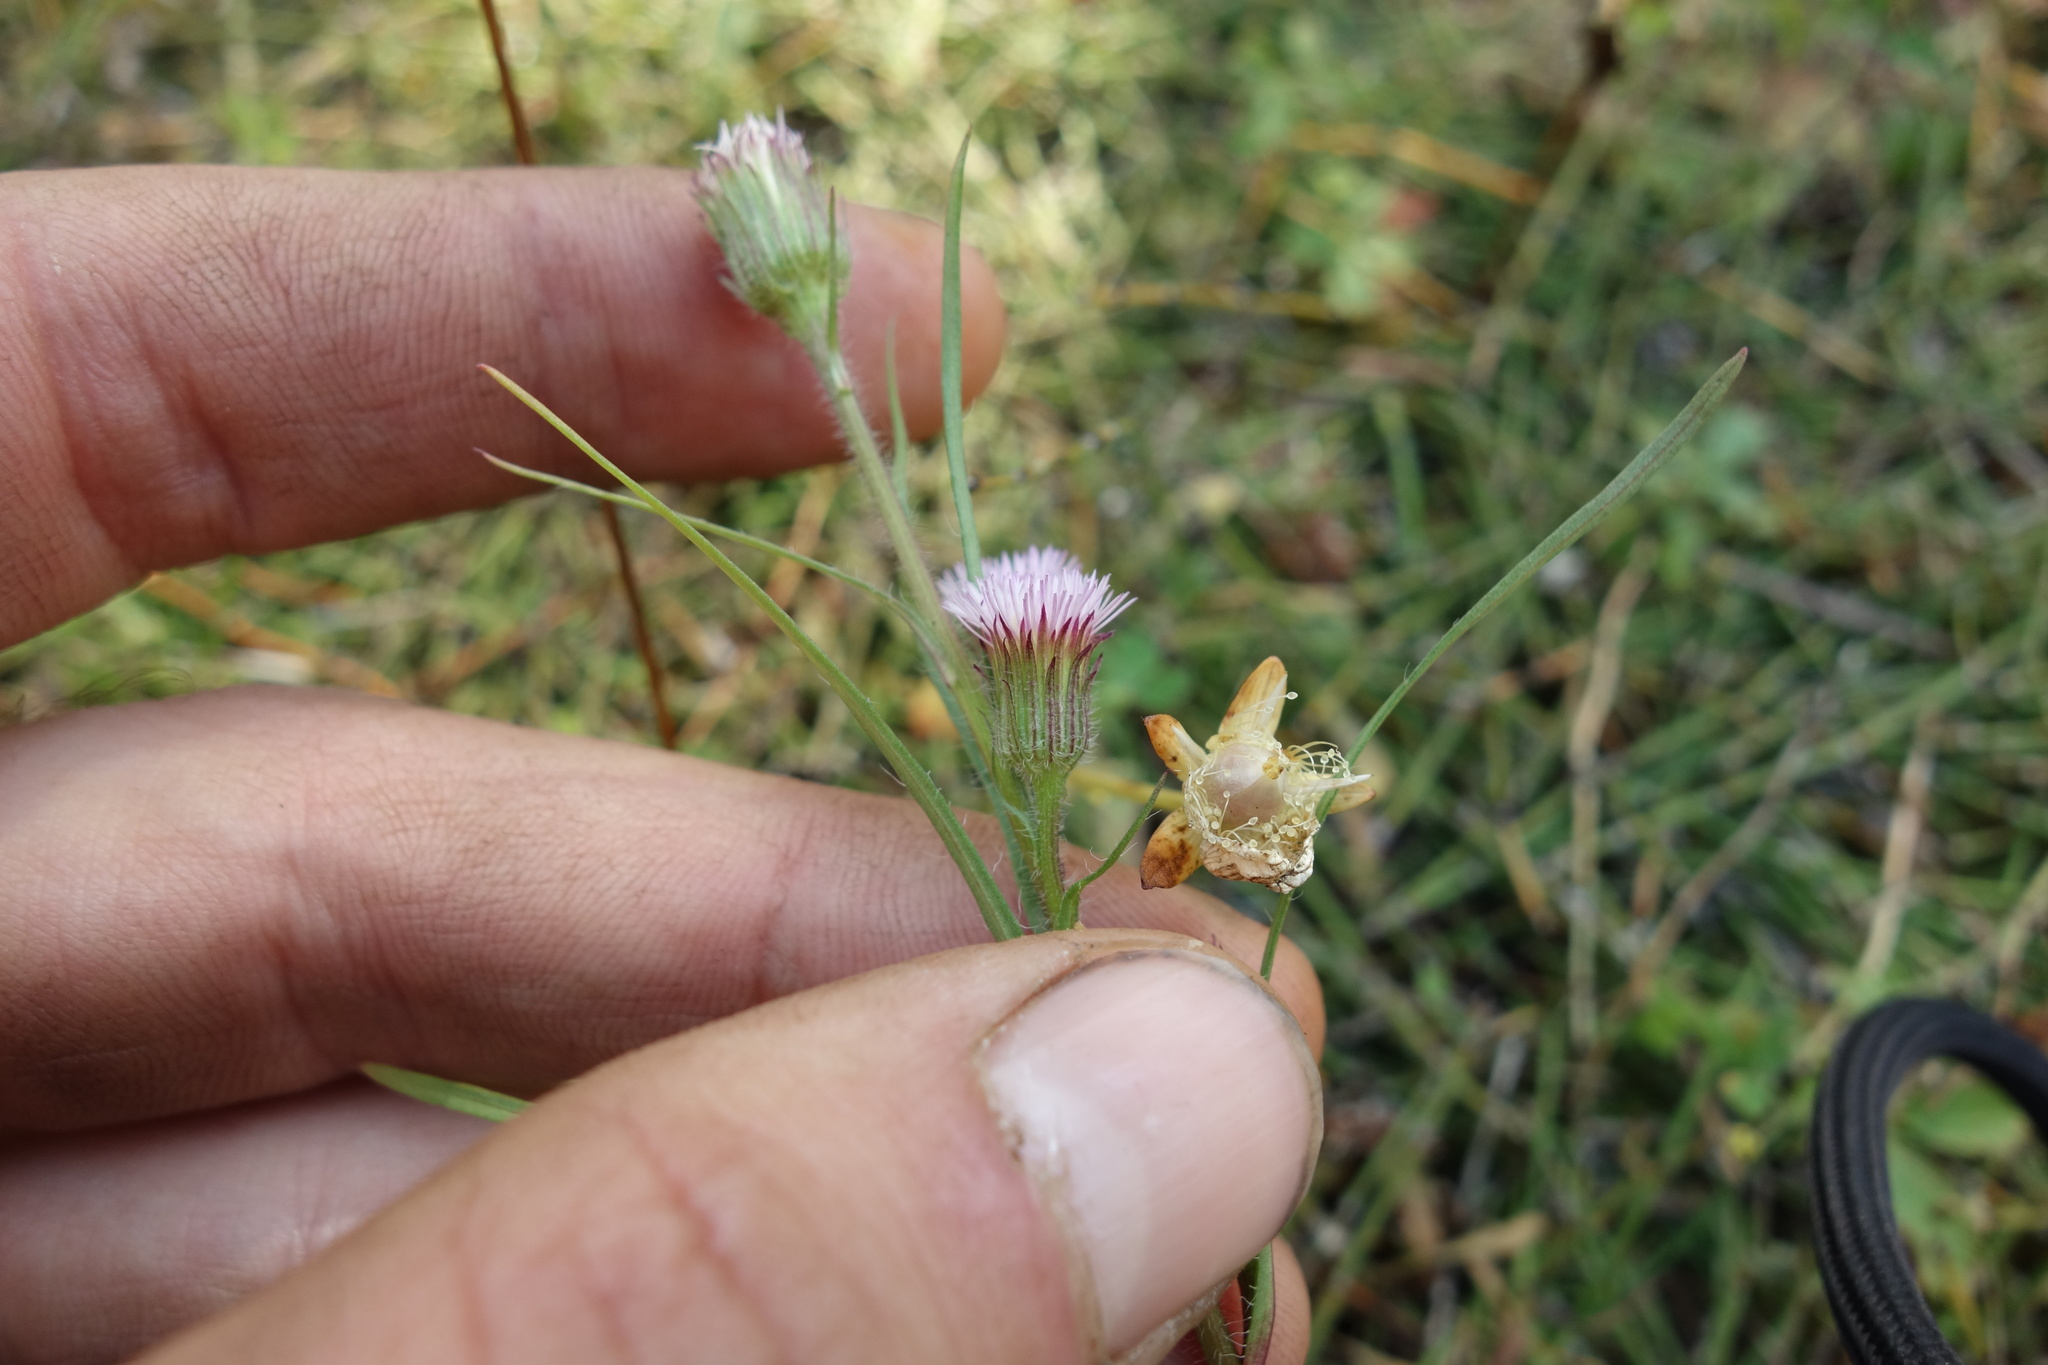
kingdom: Plantae
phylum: Tracheophyta
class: Magnoliopsida
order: Asterales
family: Asteraceae
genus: Erigeron
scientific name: Erigeron acris
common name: Blue fleabane
